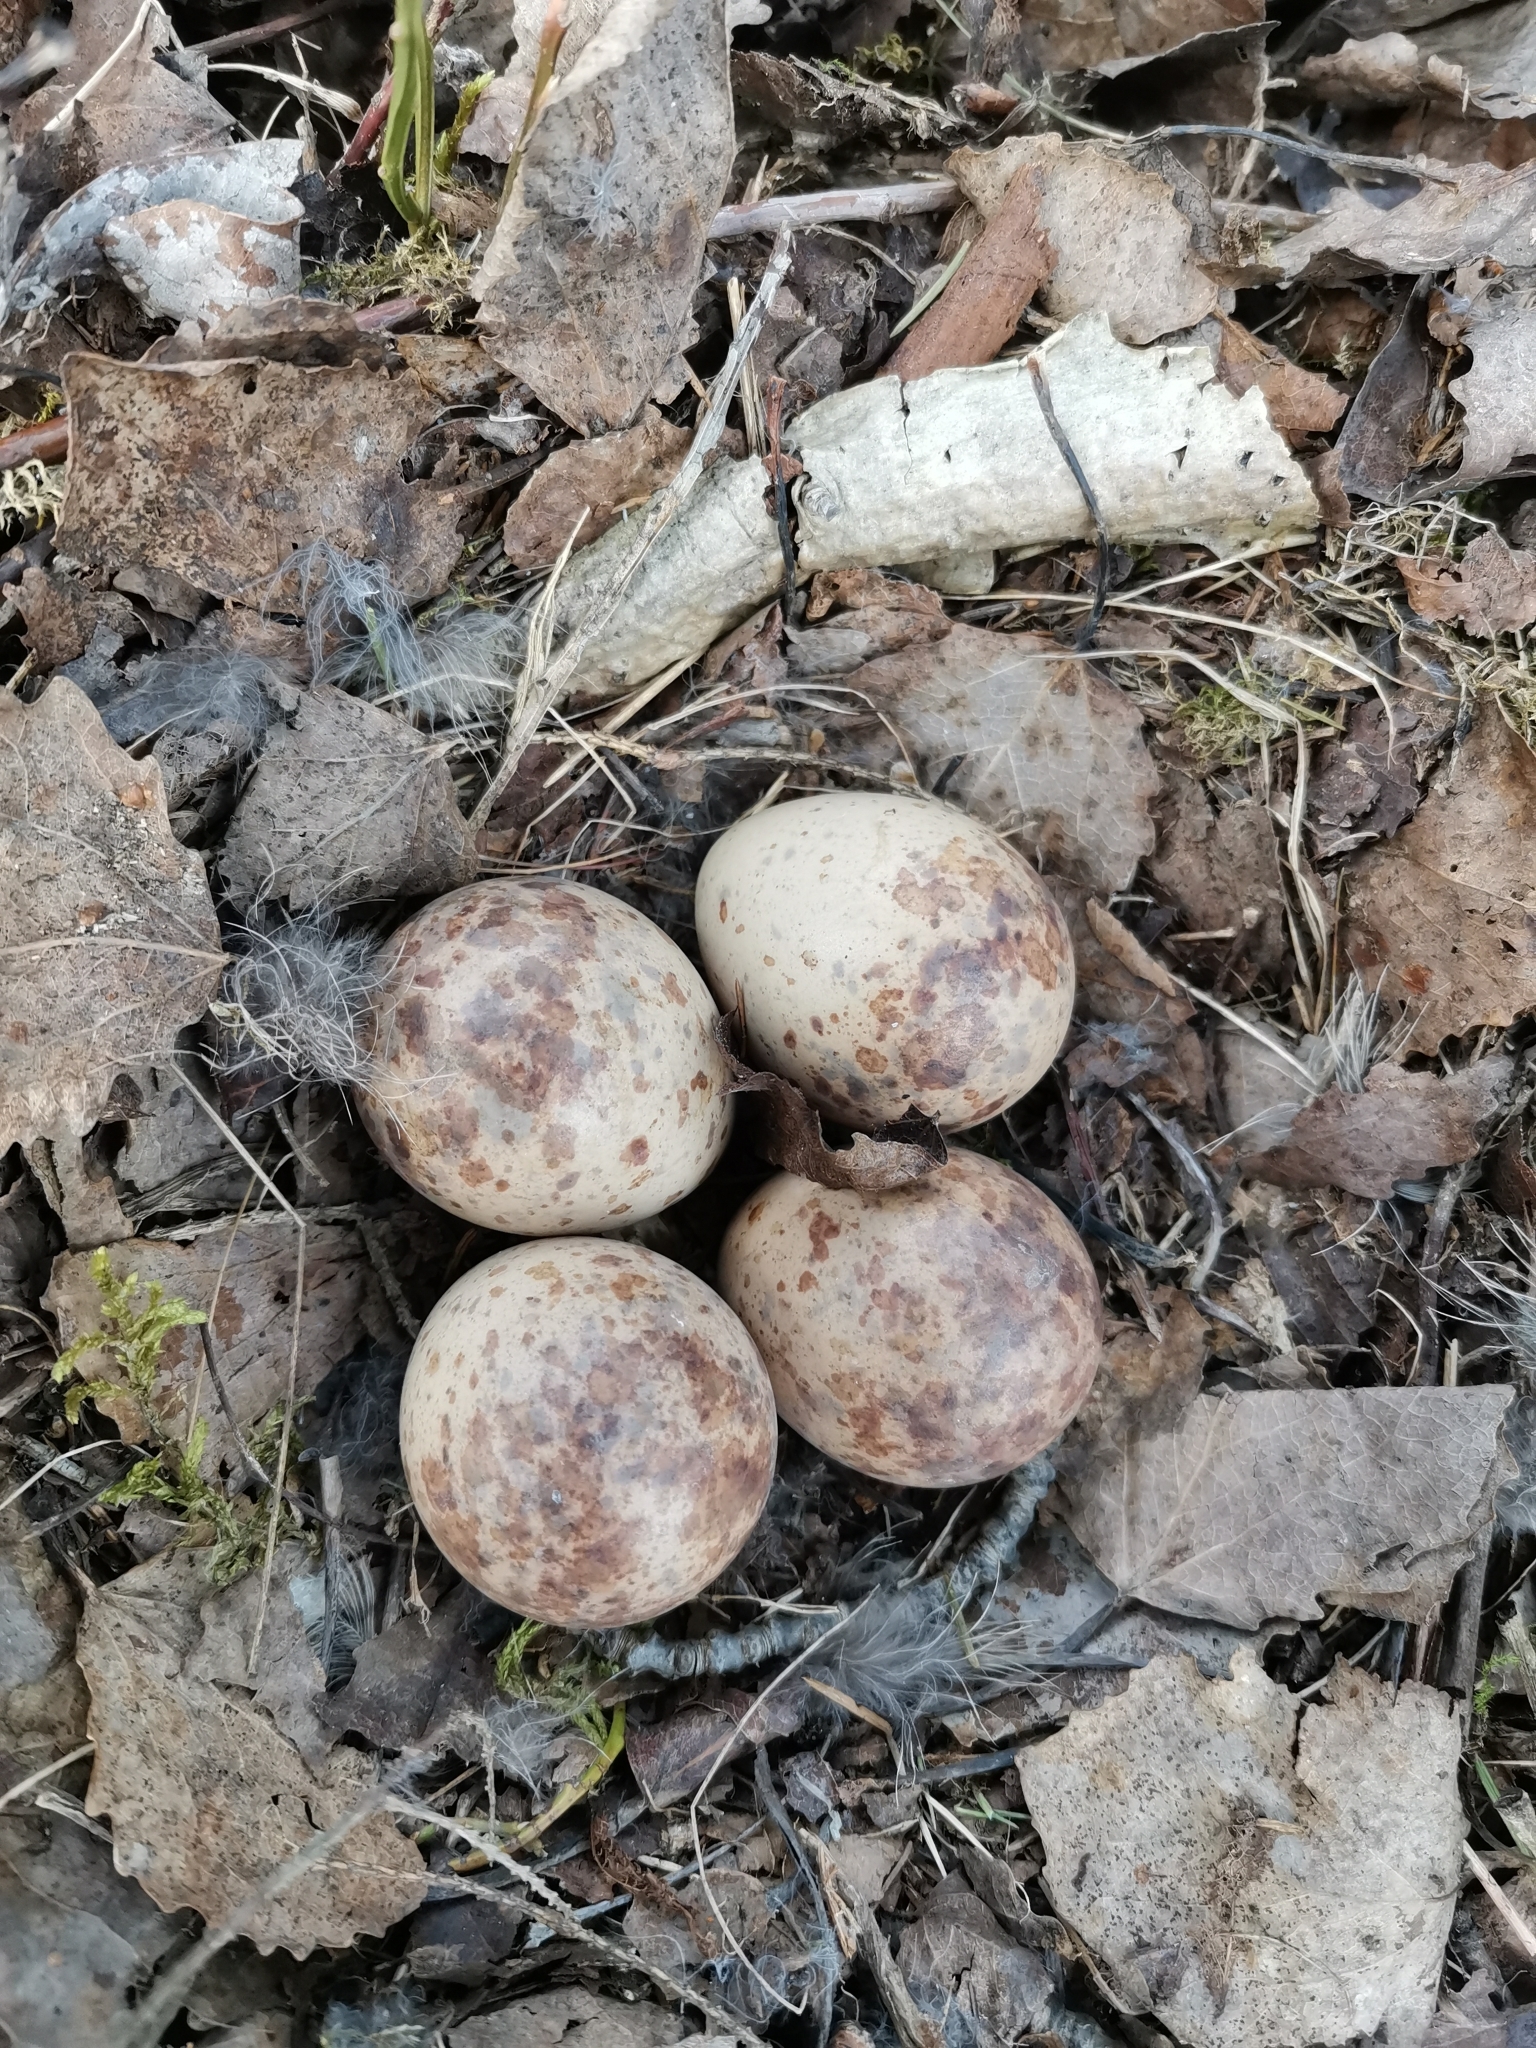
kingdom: Animalia
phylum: Chordata
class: Aves
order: Charadriiformes
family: Scolopacidae
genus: Scolopax
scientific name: Scolopax rusticola
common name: Eurasian woodcock
